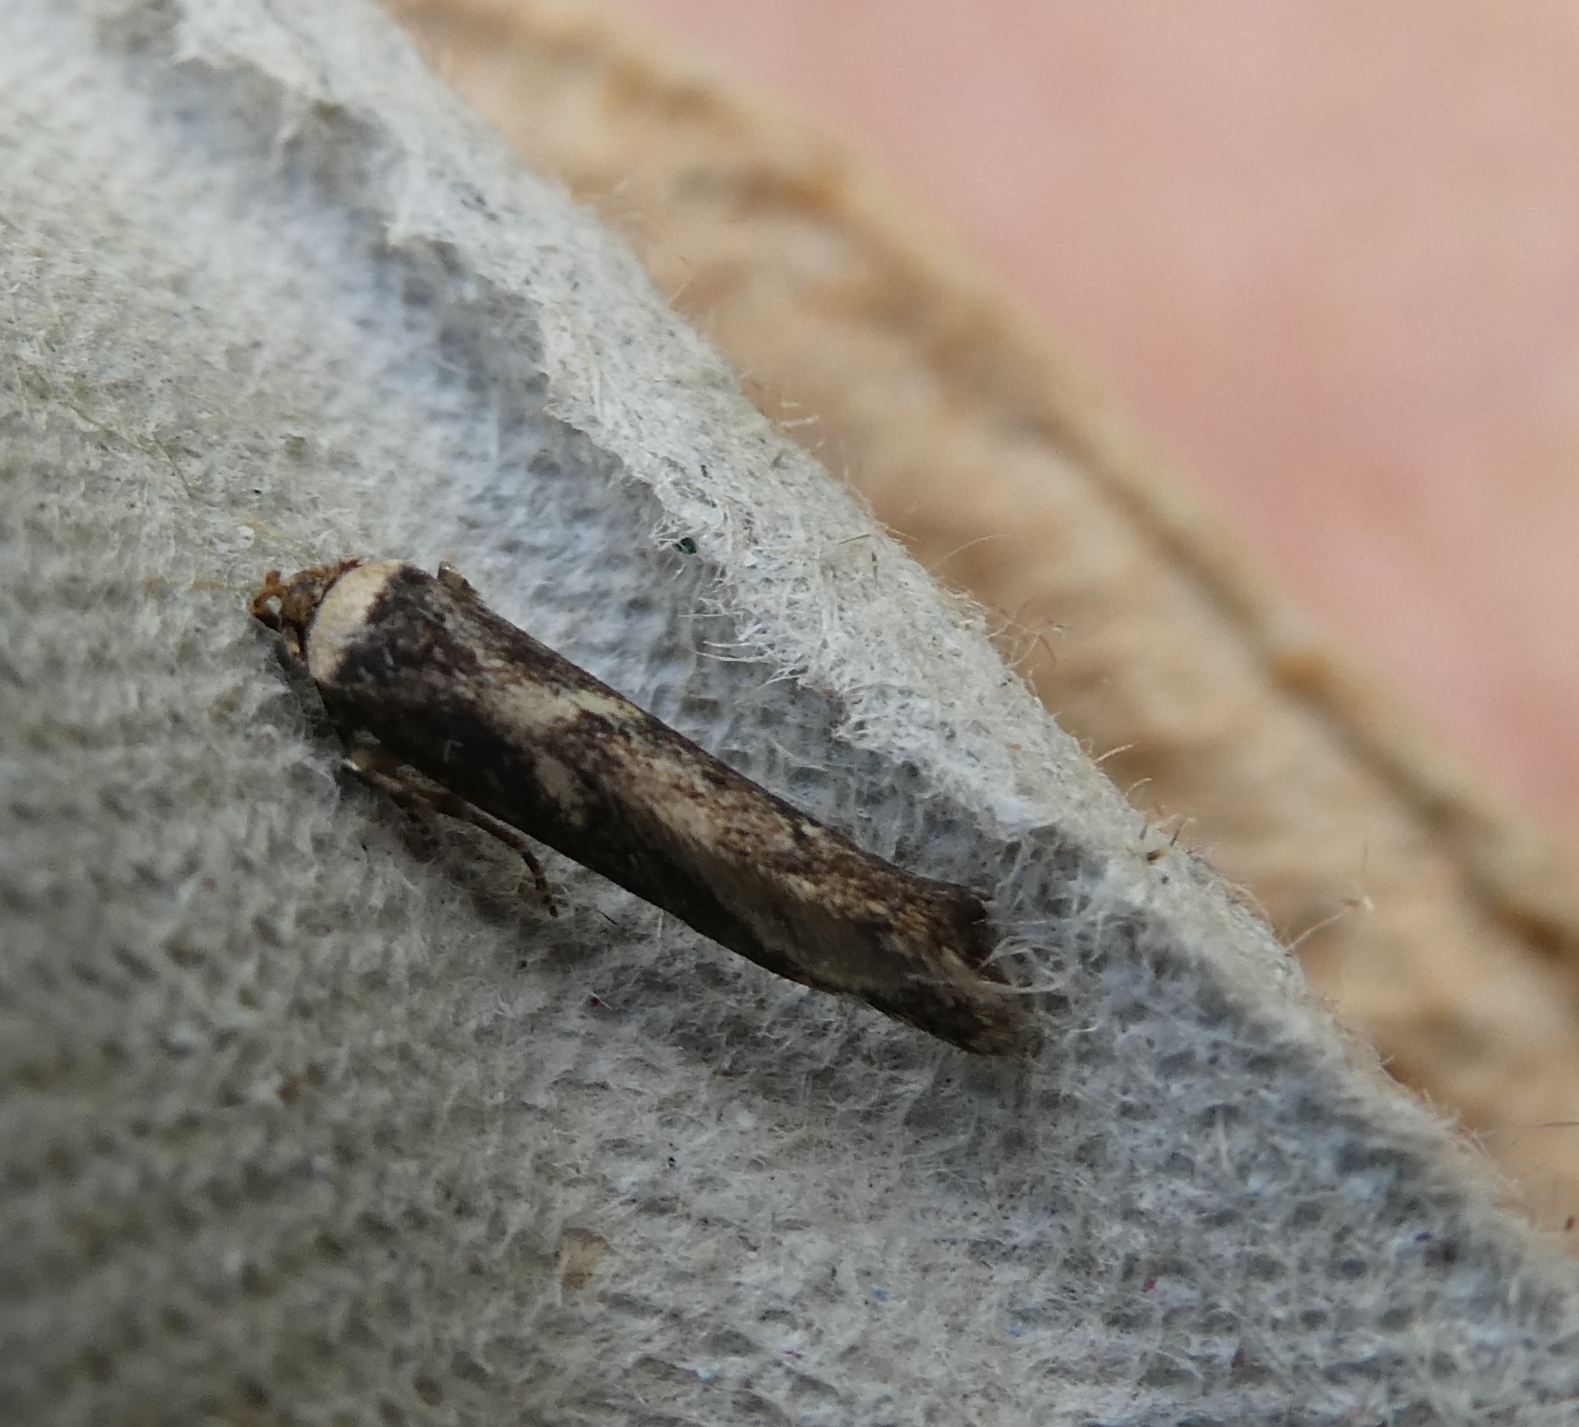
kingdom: Animalia
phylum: Arthropoda
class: Insecta
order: Lepidoptera
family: Blastobasidae
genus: Blastobasis
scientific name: Blastobasis adustella
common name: Dingy dowd
